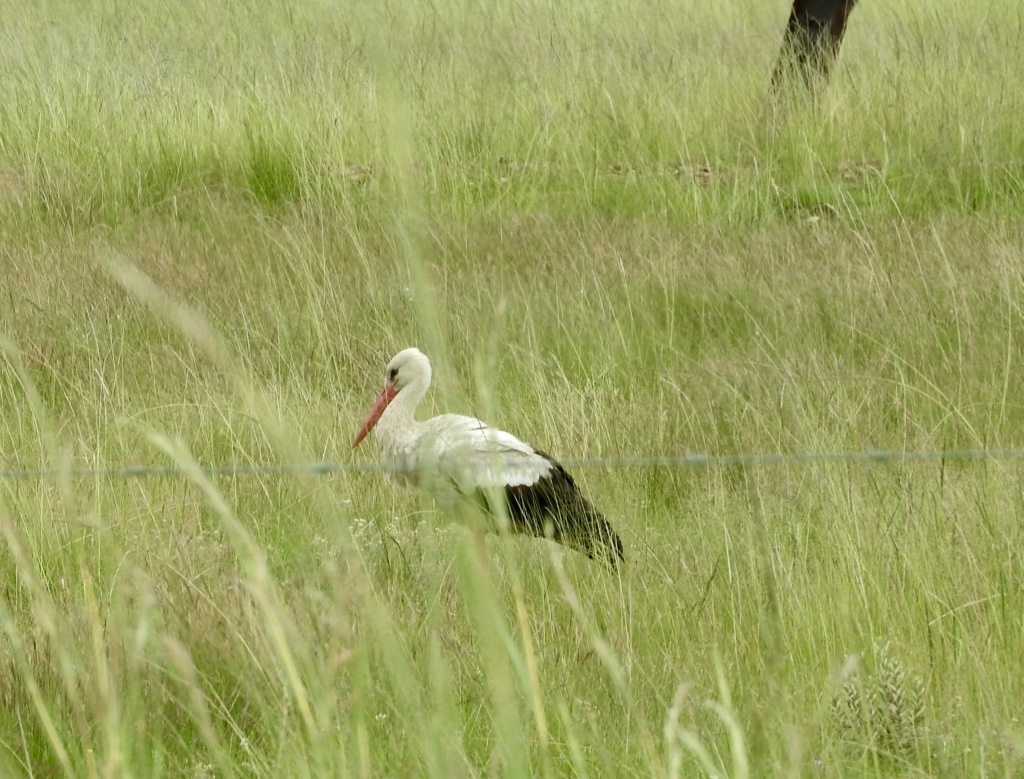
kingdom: Animalia
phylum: Chordata
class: Aves
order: Ciconiiformes
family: Ciconiidae
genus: Ciconia
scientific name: Ciconia ciconia
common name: White stork
